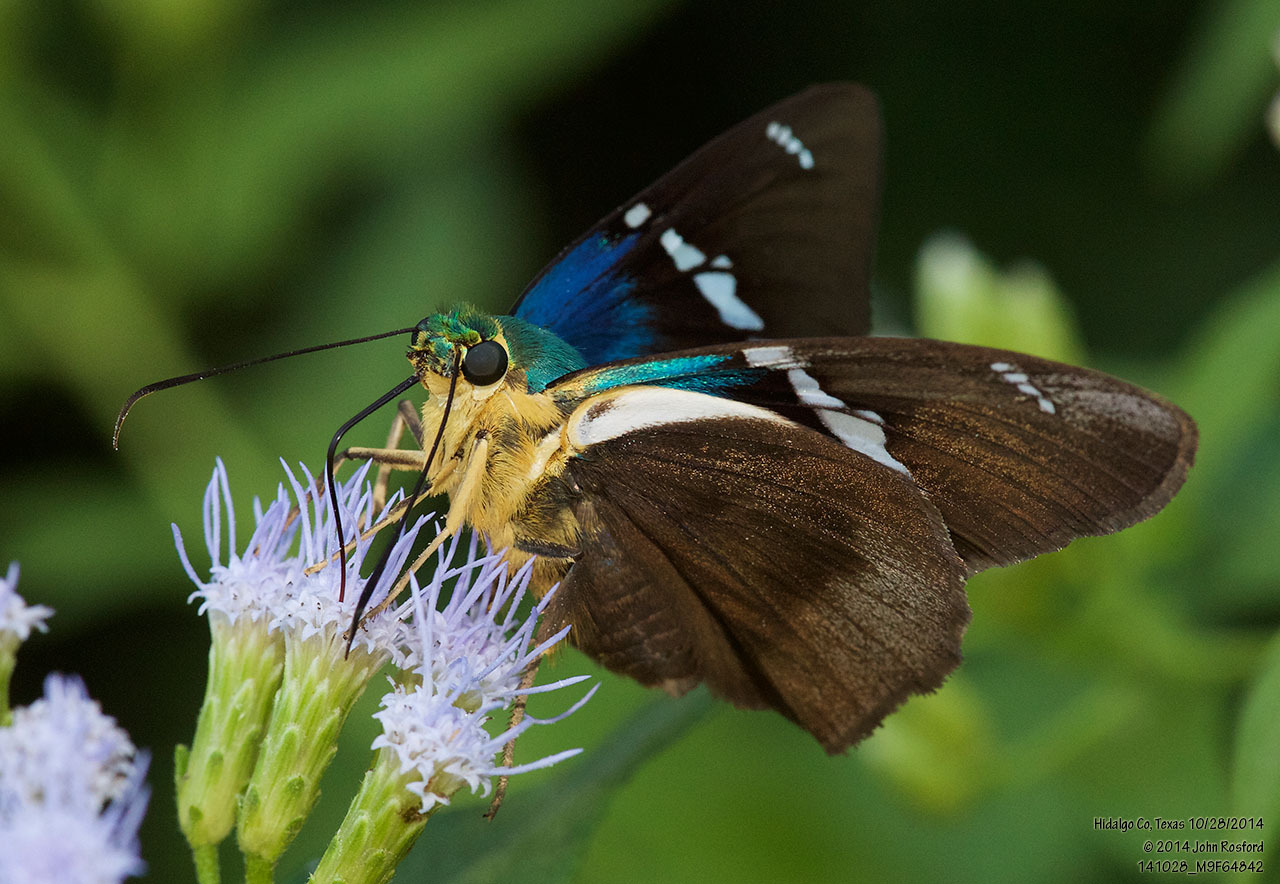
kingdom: Animalia
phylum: Arthropoda
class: Insecta
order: Lepidoptera
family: Hesperiidae
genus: Astraptes
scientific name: Astraptes fulgerator
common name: Two-barred flasher
